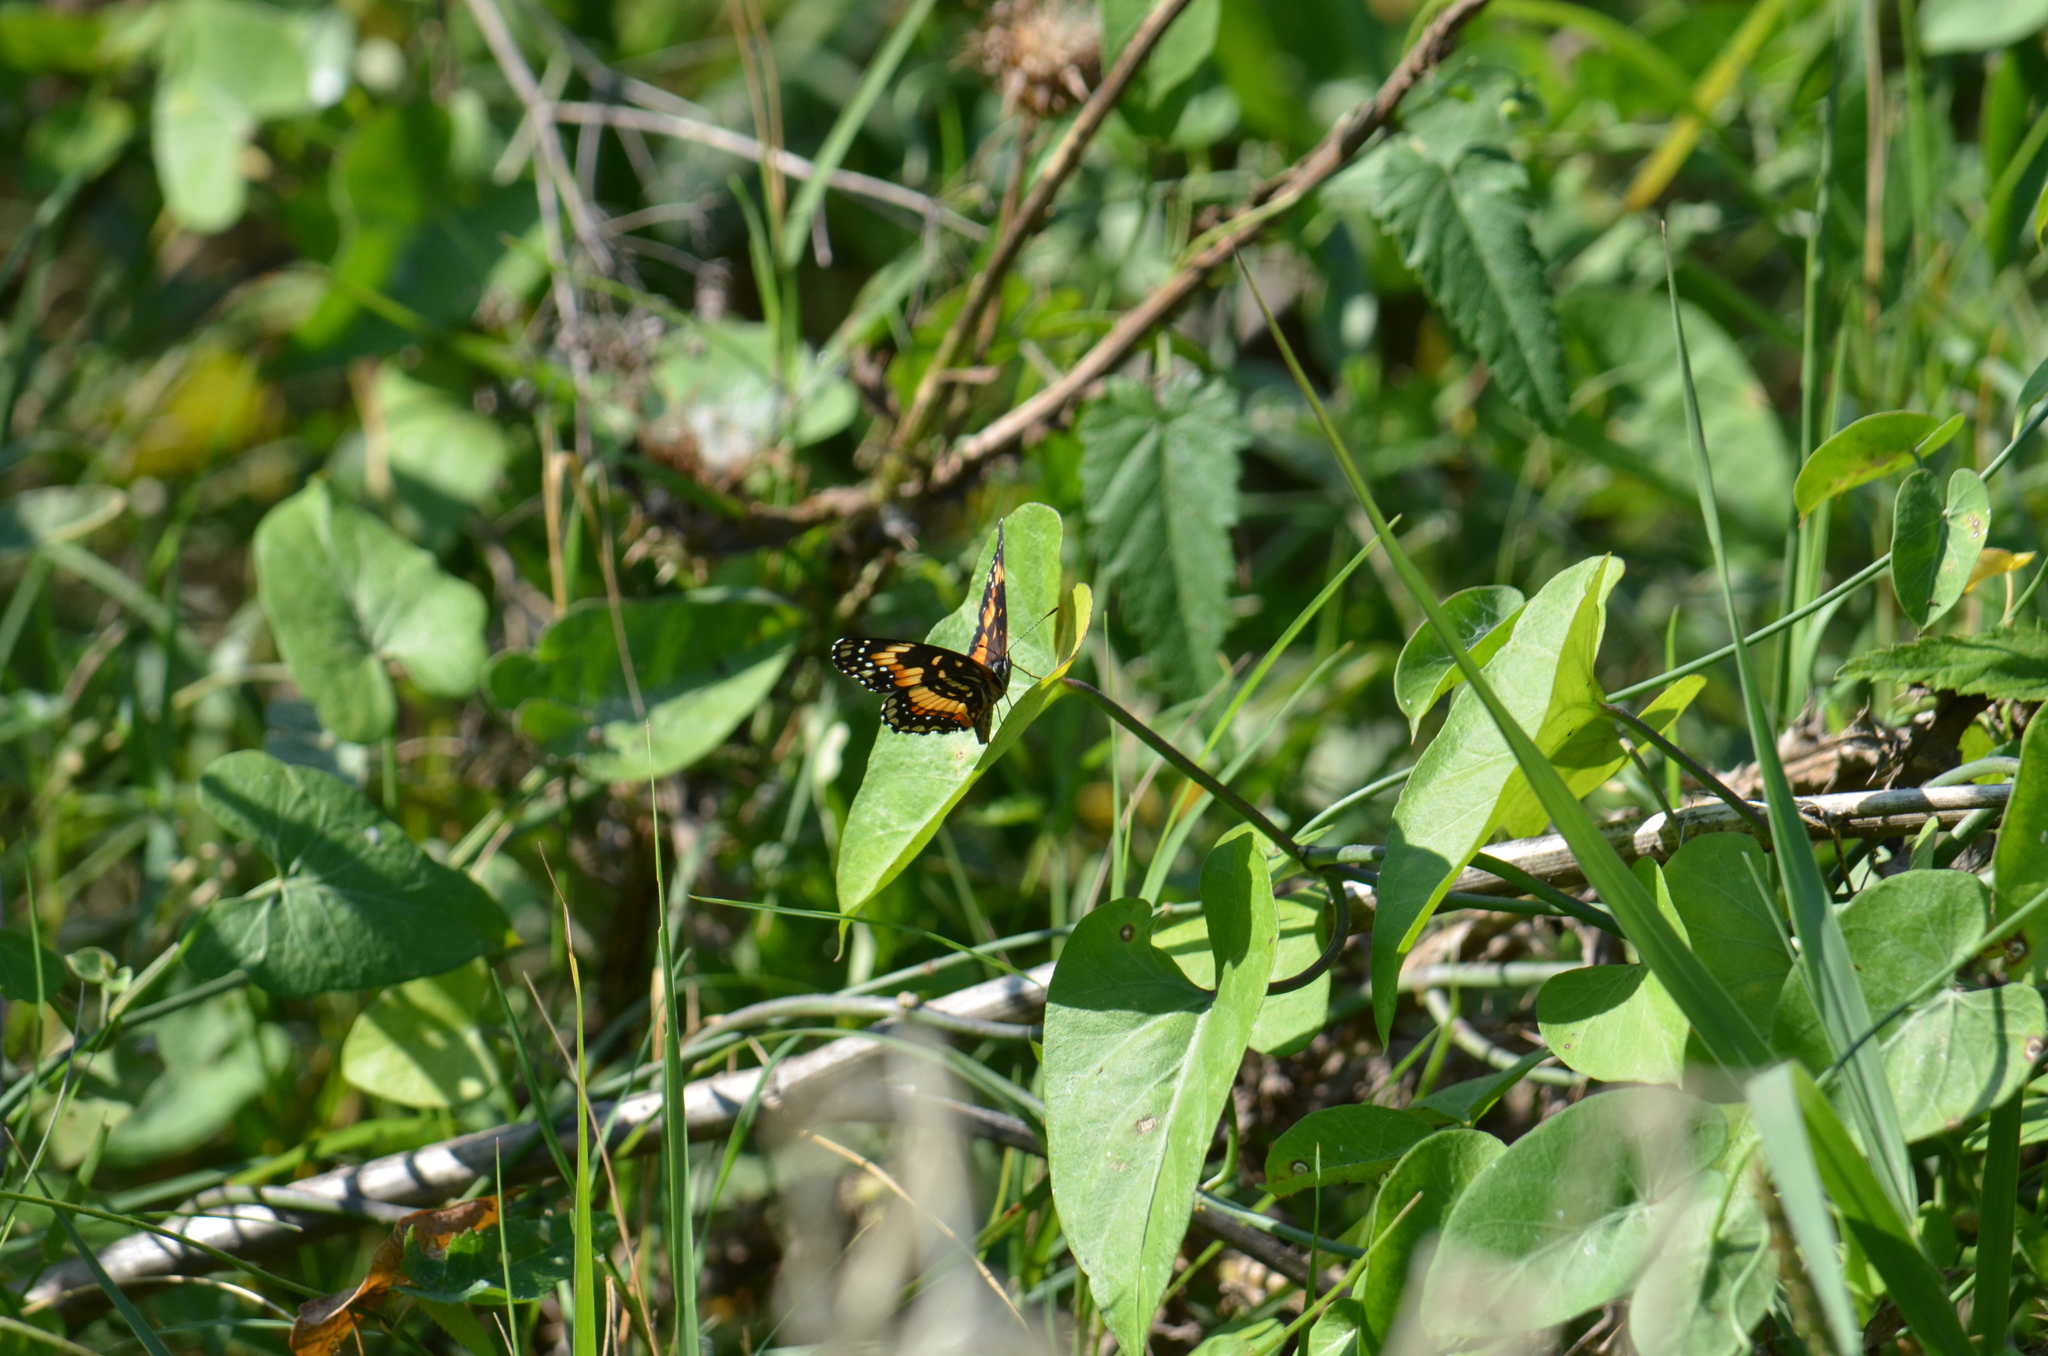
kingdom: Animalia
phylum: Arthropoda
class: Insecta
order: Lepidoptera
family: Nymphalidae
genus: Chlosyne
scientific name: Chlosyne lacinia
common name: Bordered patch
